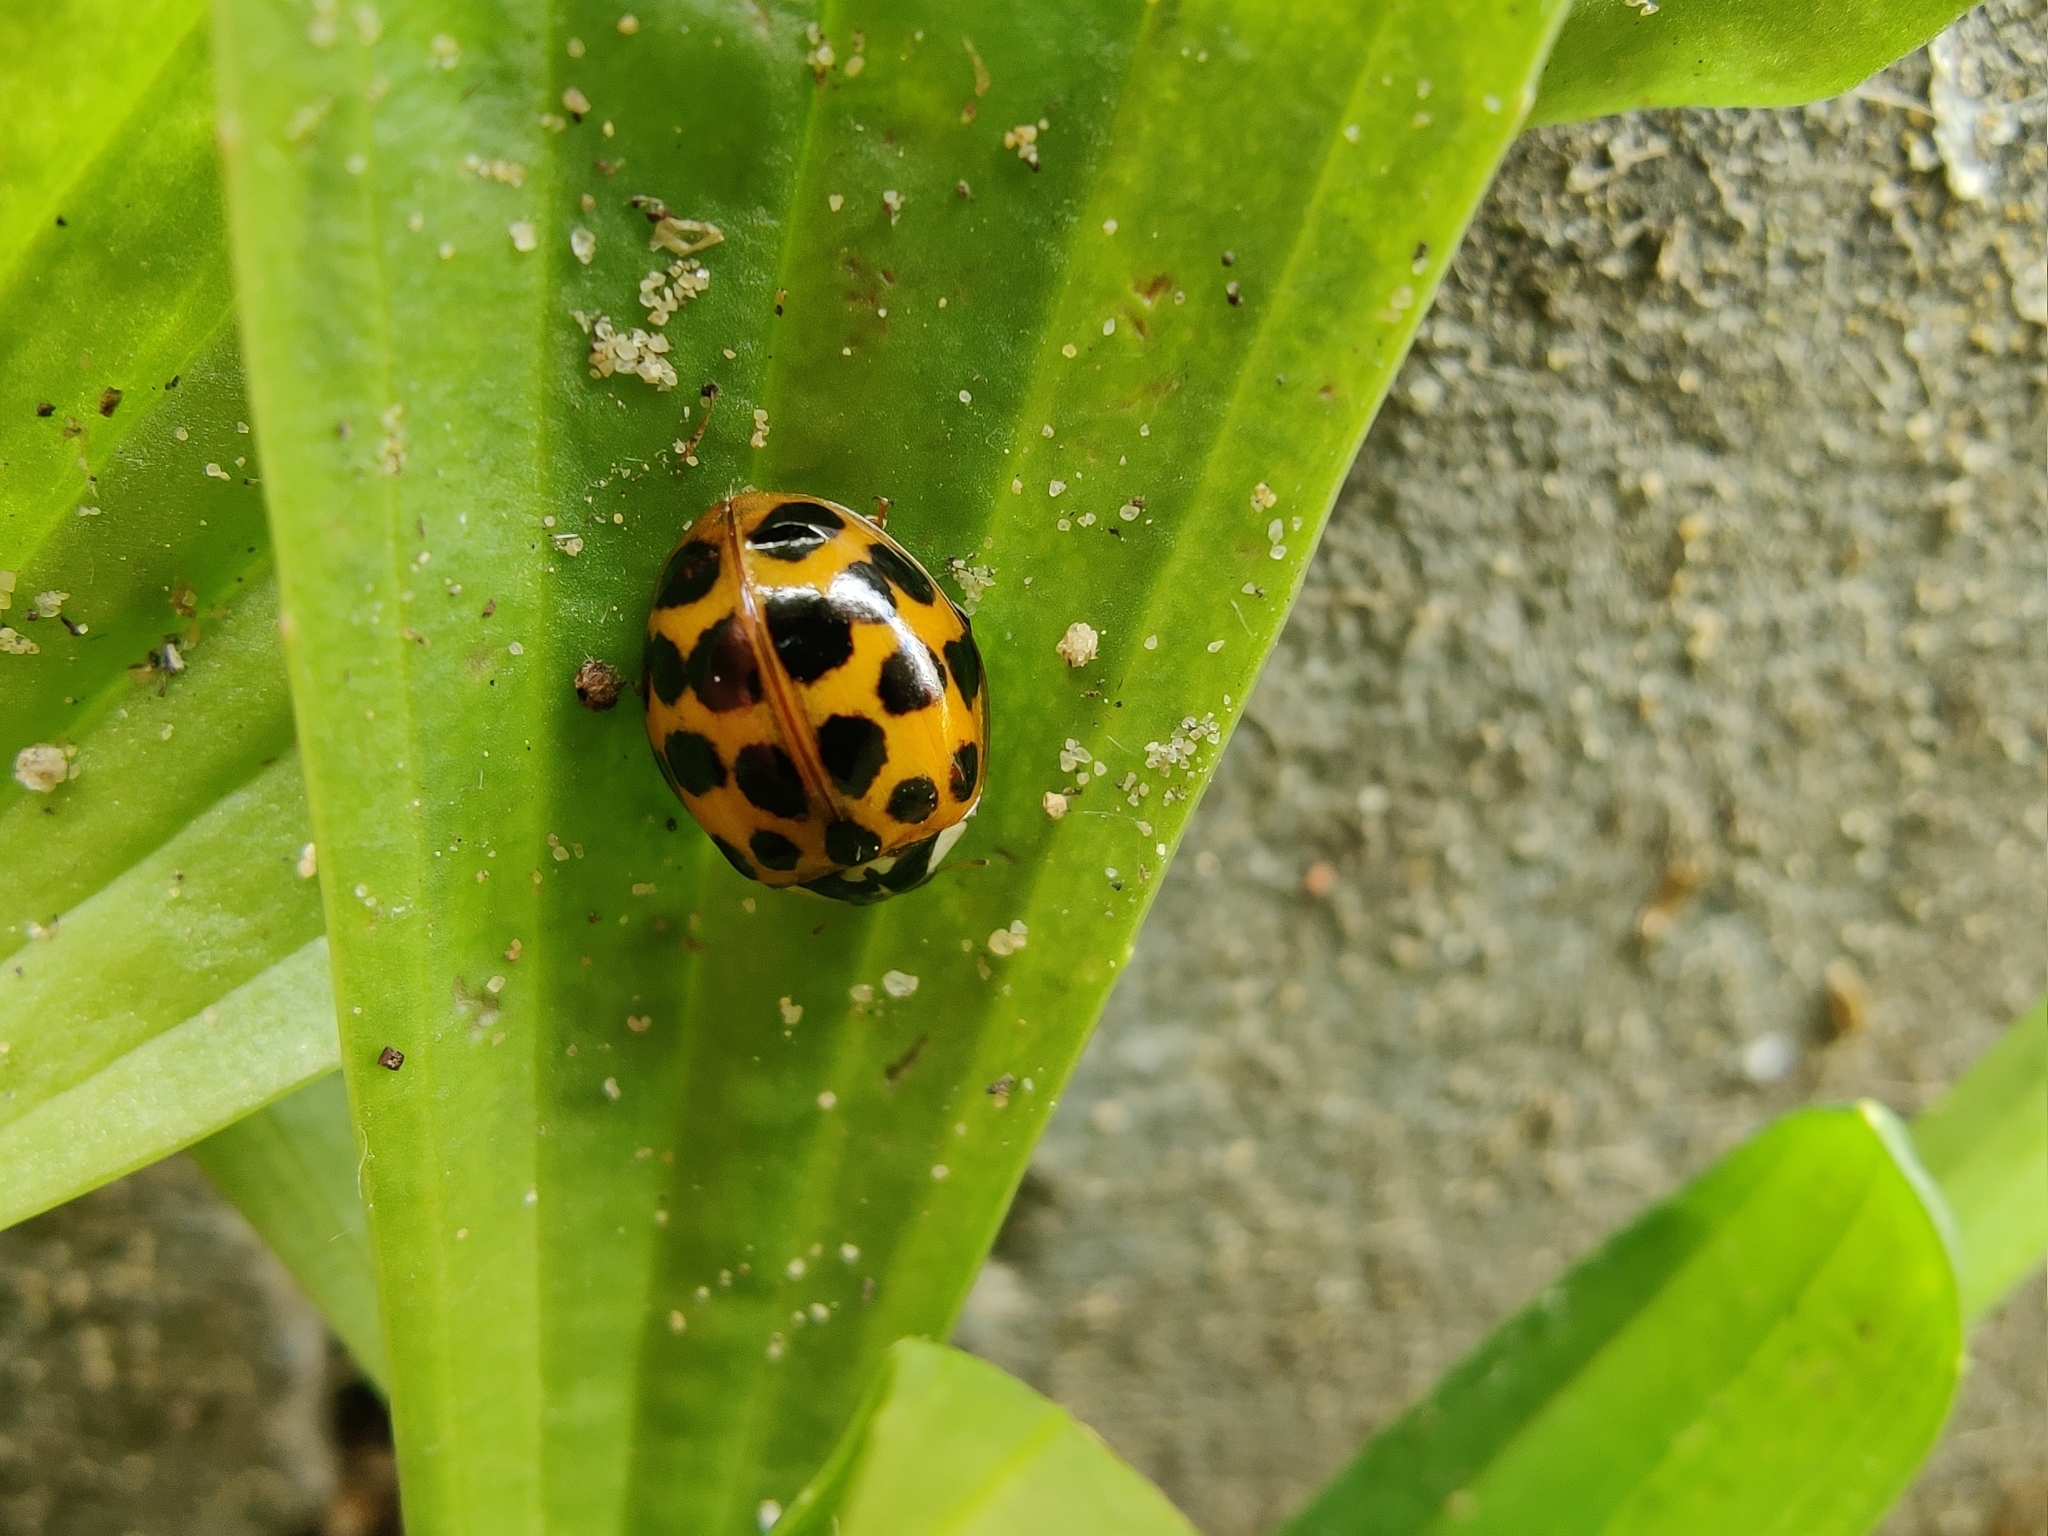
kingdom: Animalia
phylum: Arthropoda
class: Insecta
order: Coleoptera
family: Coccinellidae
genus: Harmonia
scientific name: Harmonia axyridis
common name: Harlequin ladybird
